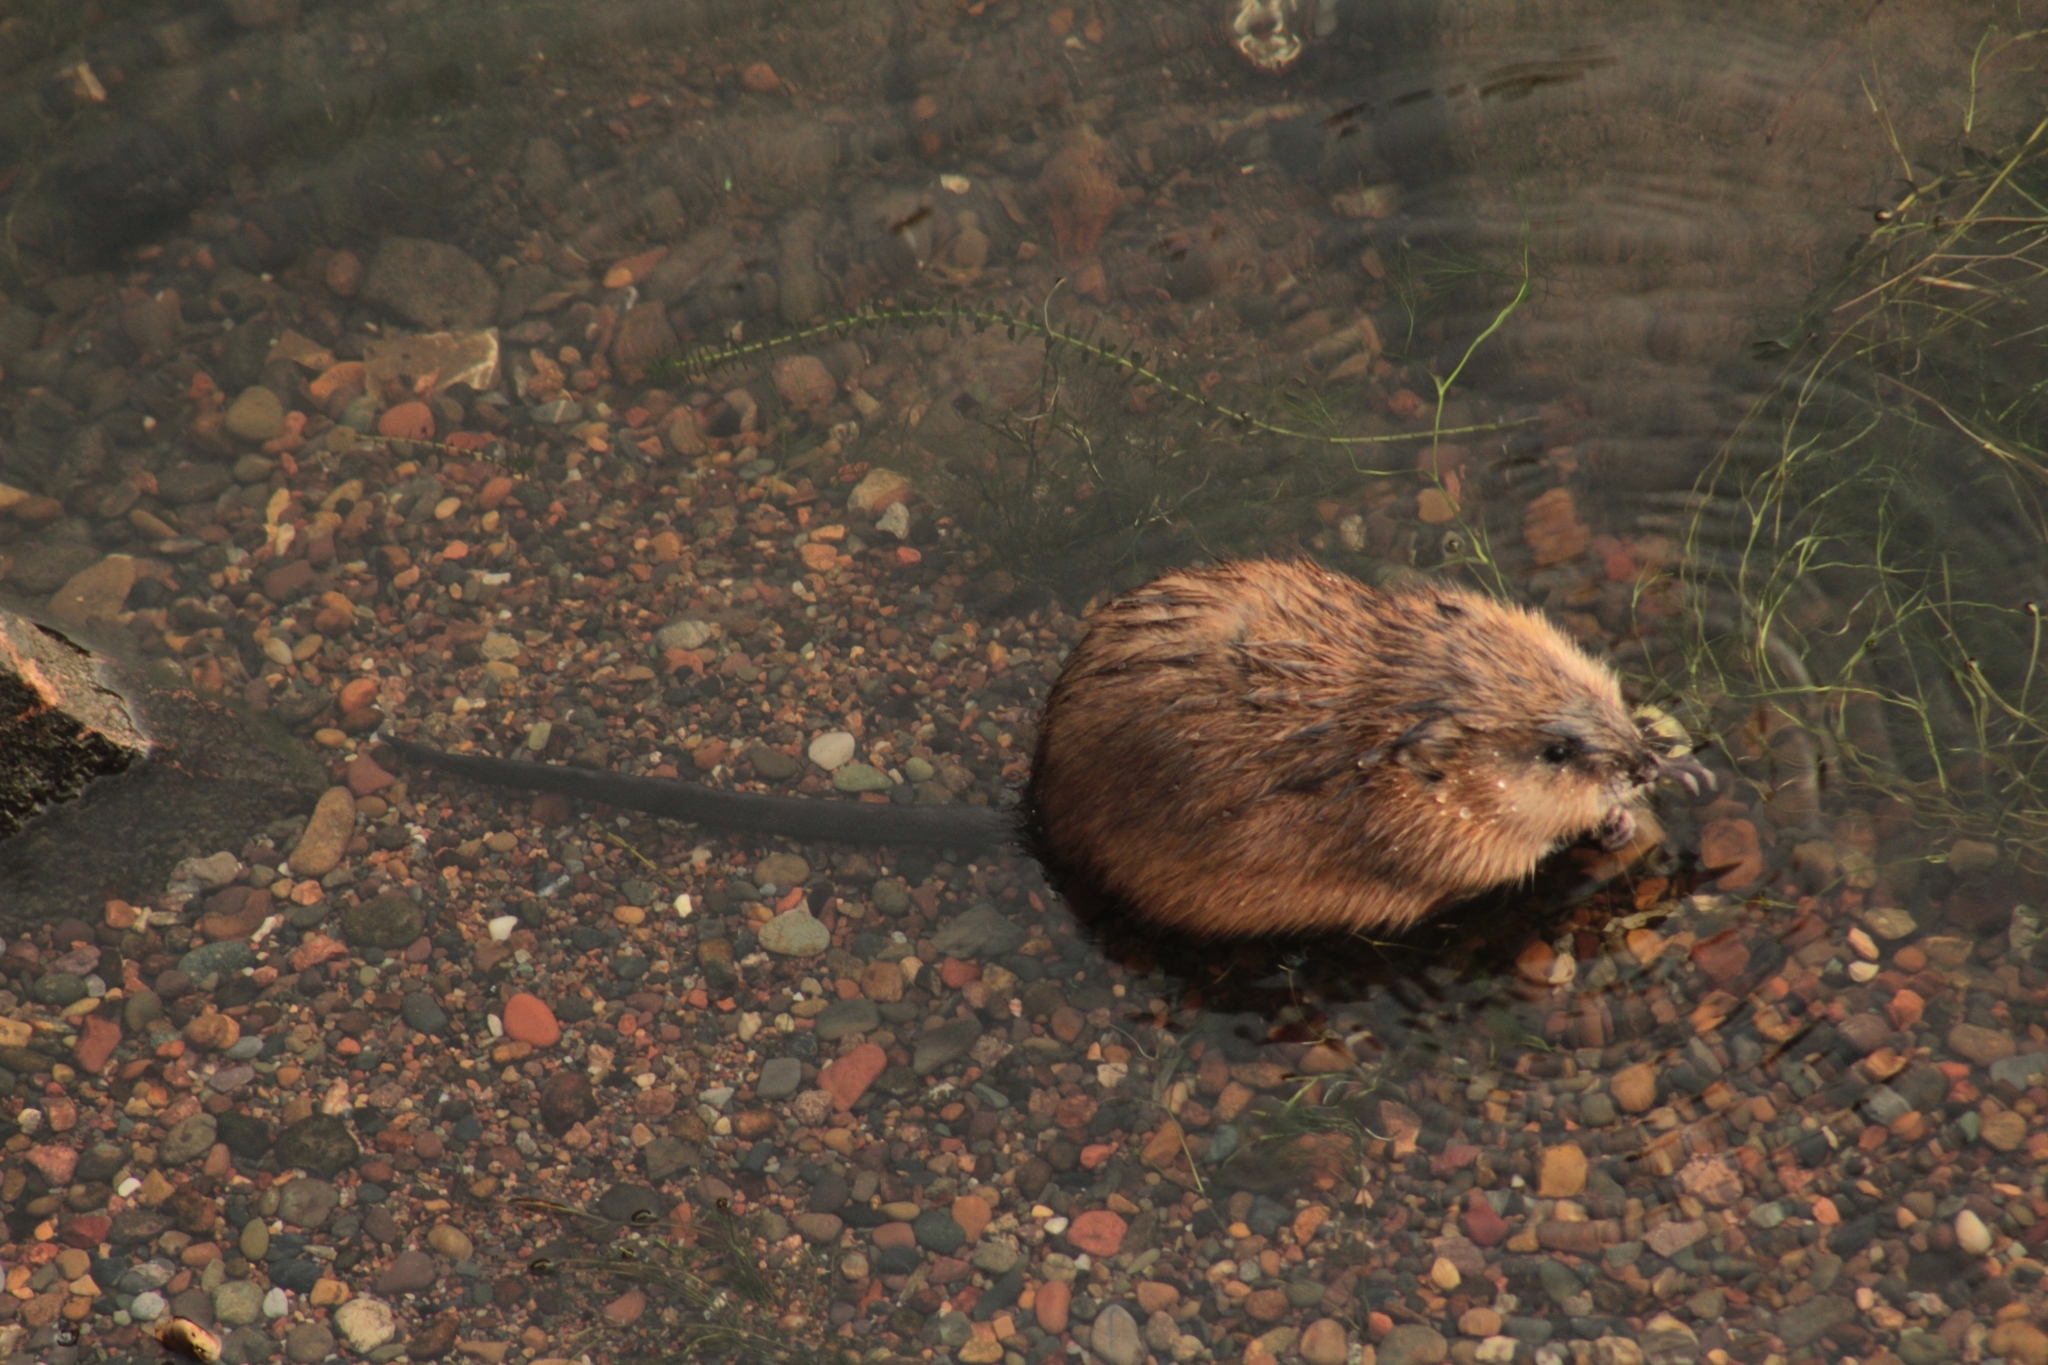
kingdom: Animalia
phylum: Chordata
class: Mammalia
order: Rodentia
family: Cricetidae
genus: Ondatra
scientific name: Ondatra zibethicus
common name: Muskrat
